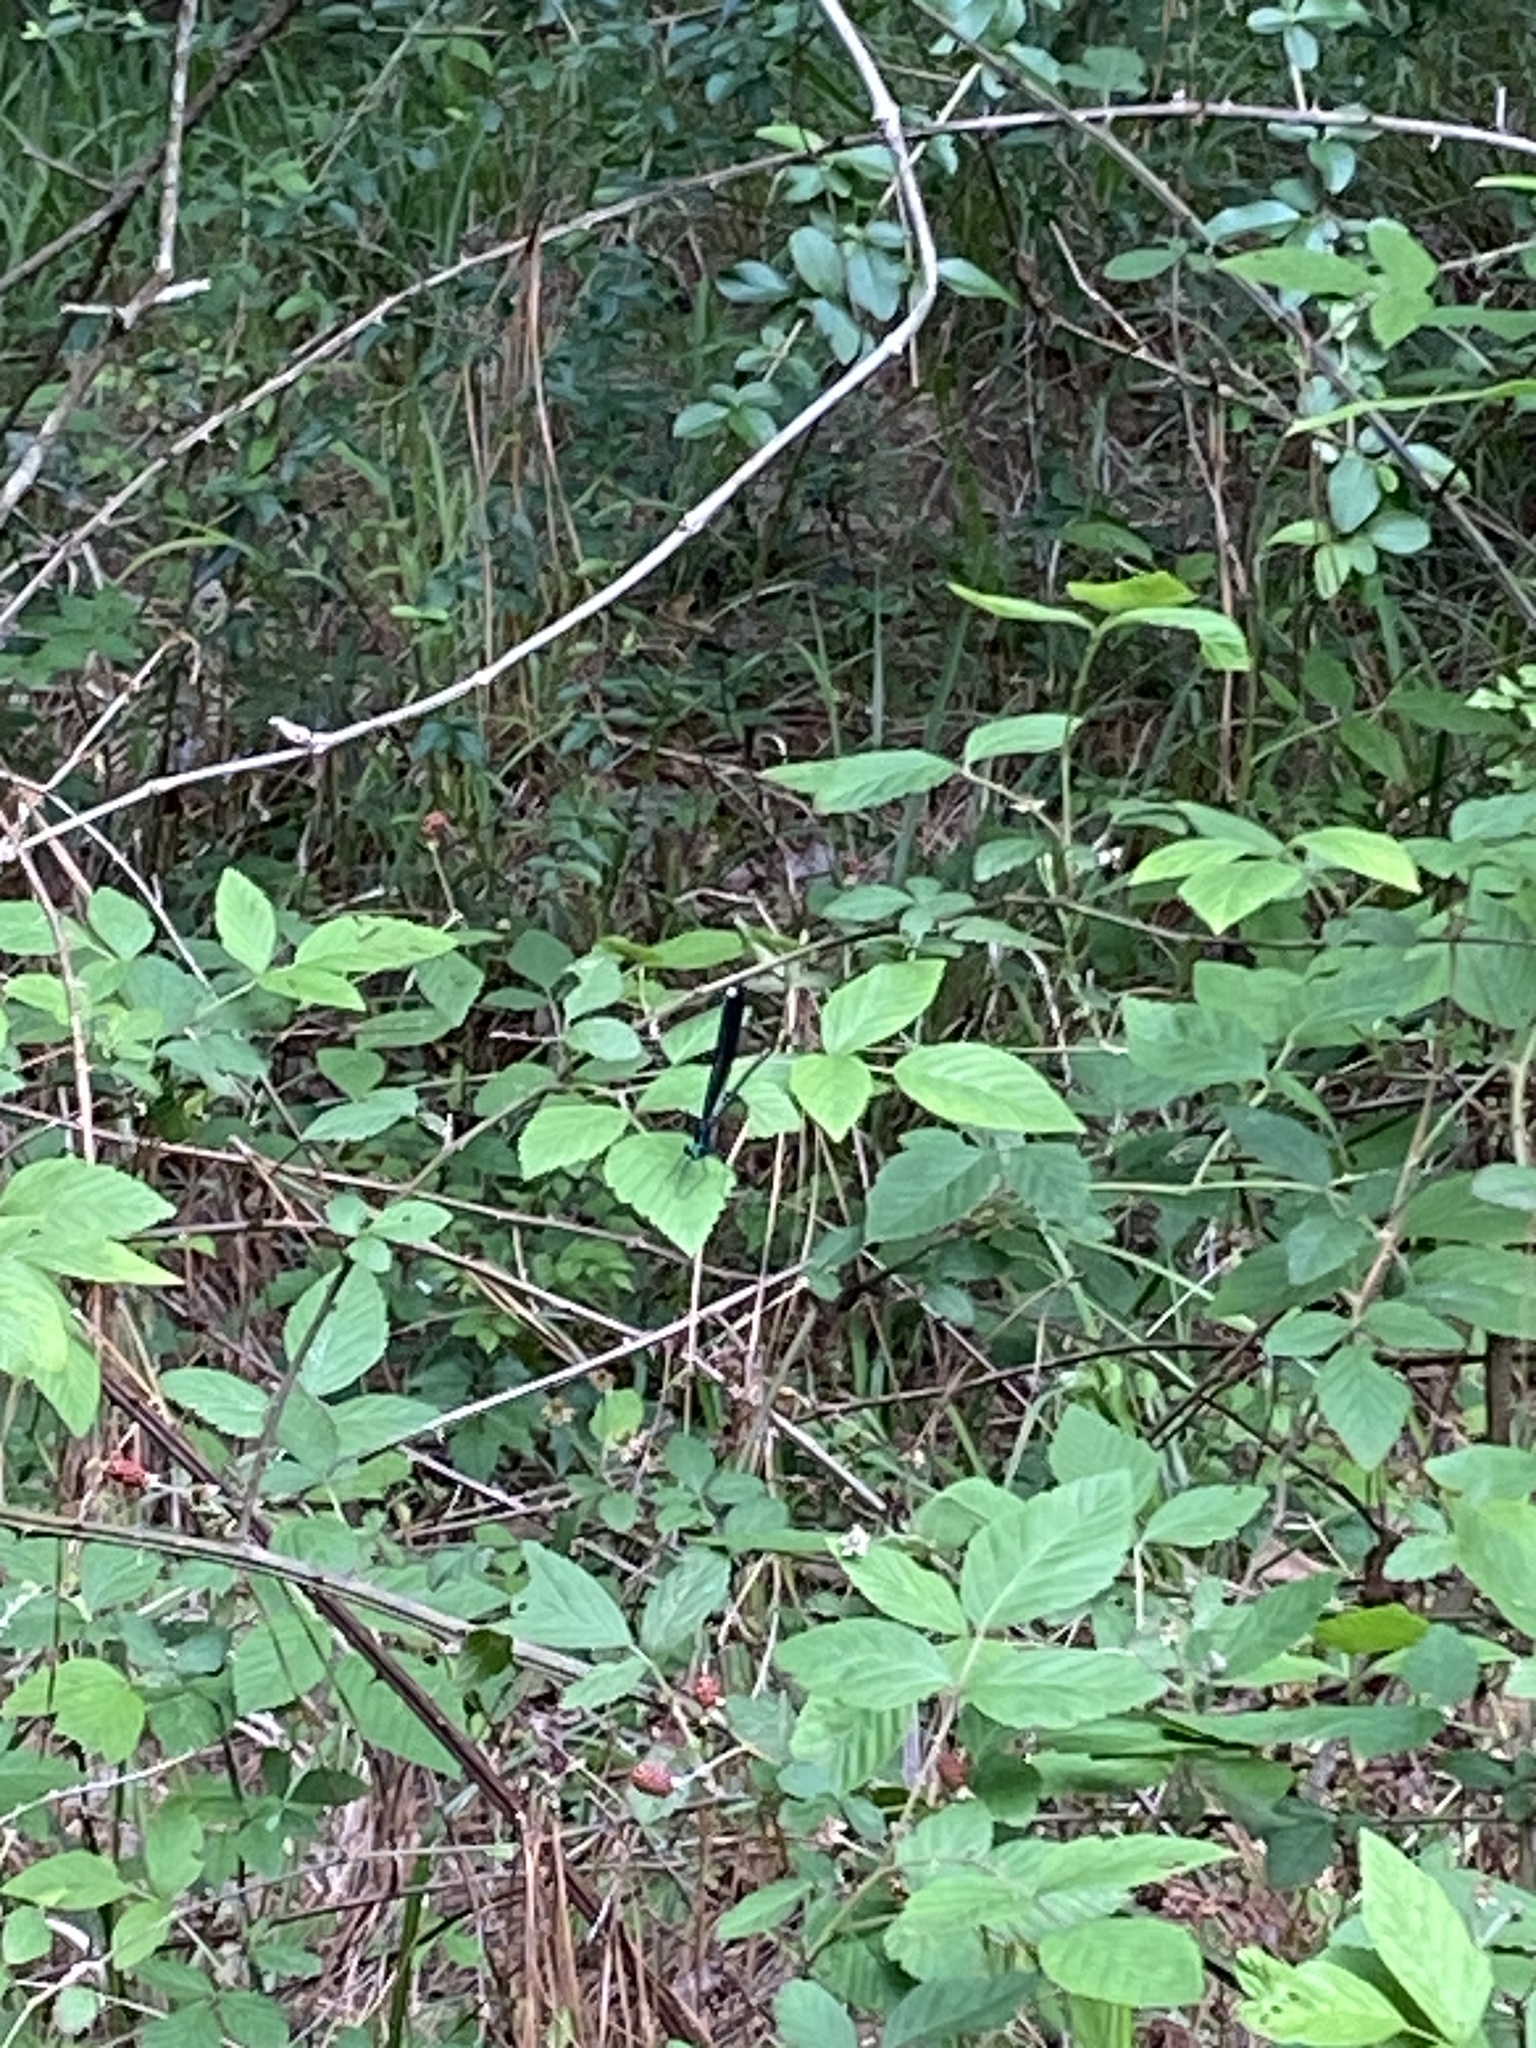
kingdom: Animalia
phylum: Arthropoda
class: Insecta
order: Odonata
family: Calopterygidae
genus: Calopteryx
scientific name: Calopteryx maculata
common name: Ebony jewelwing
